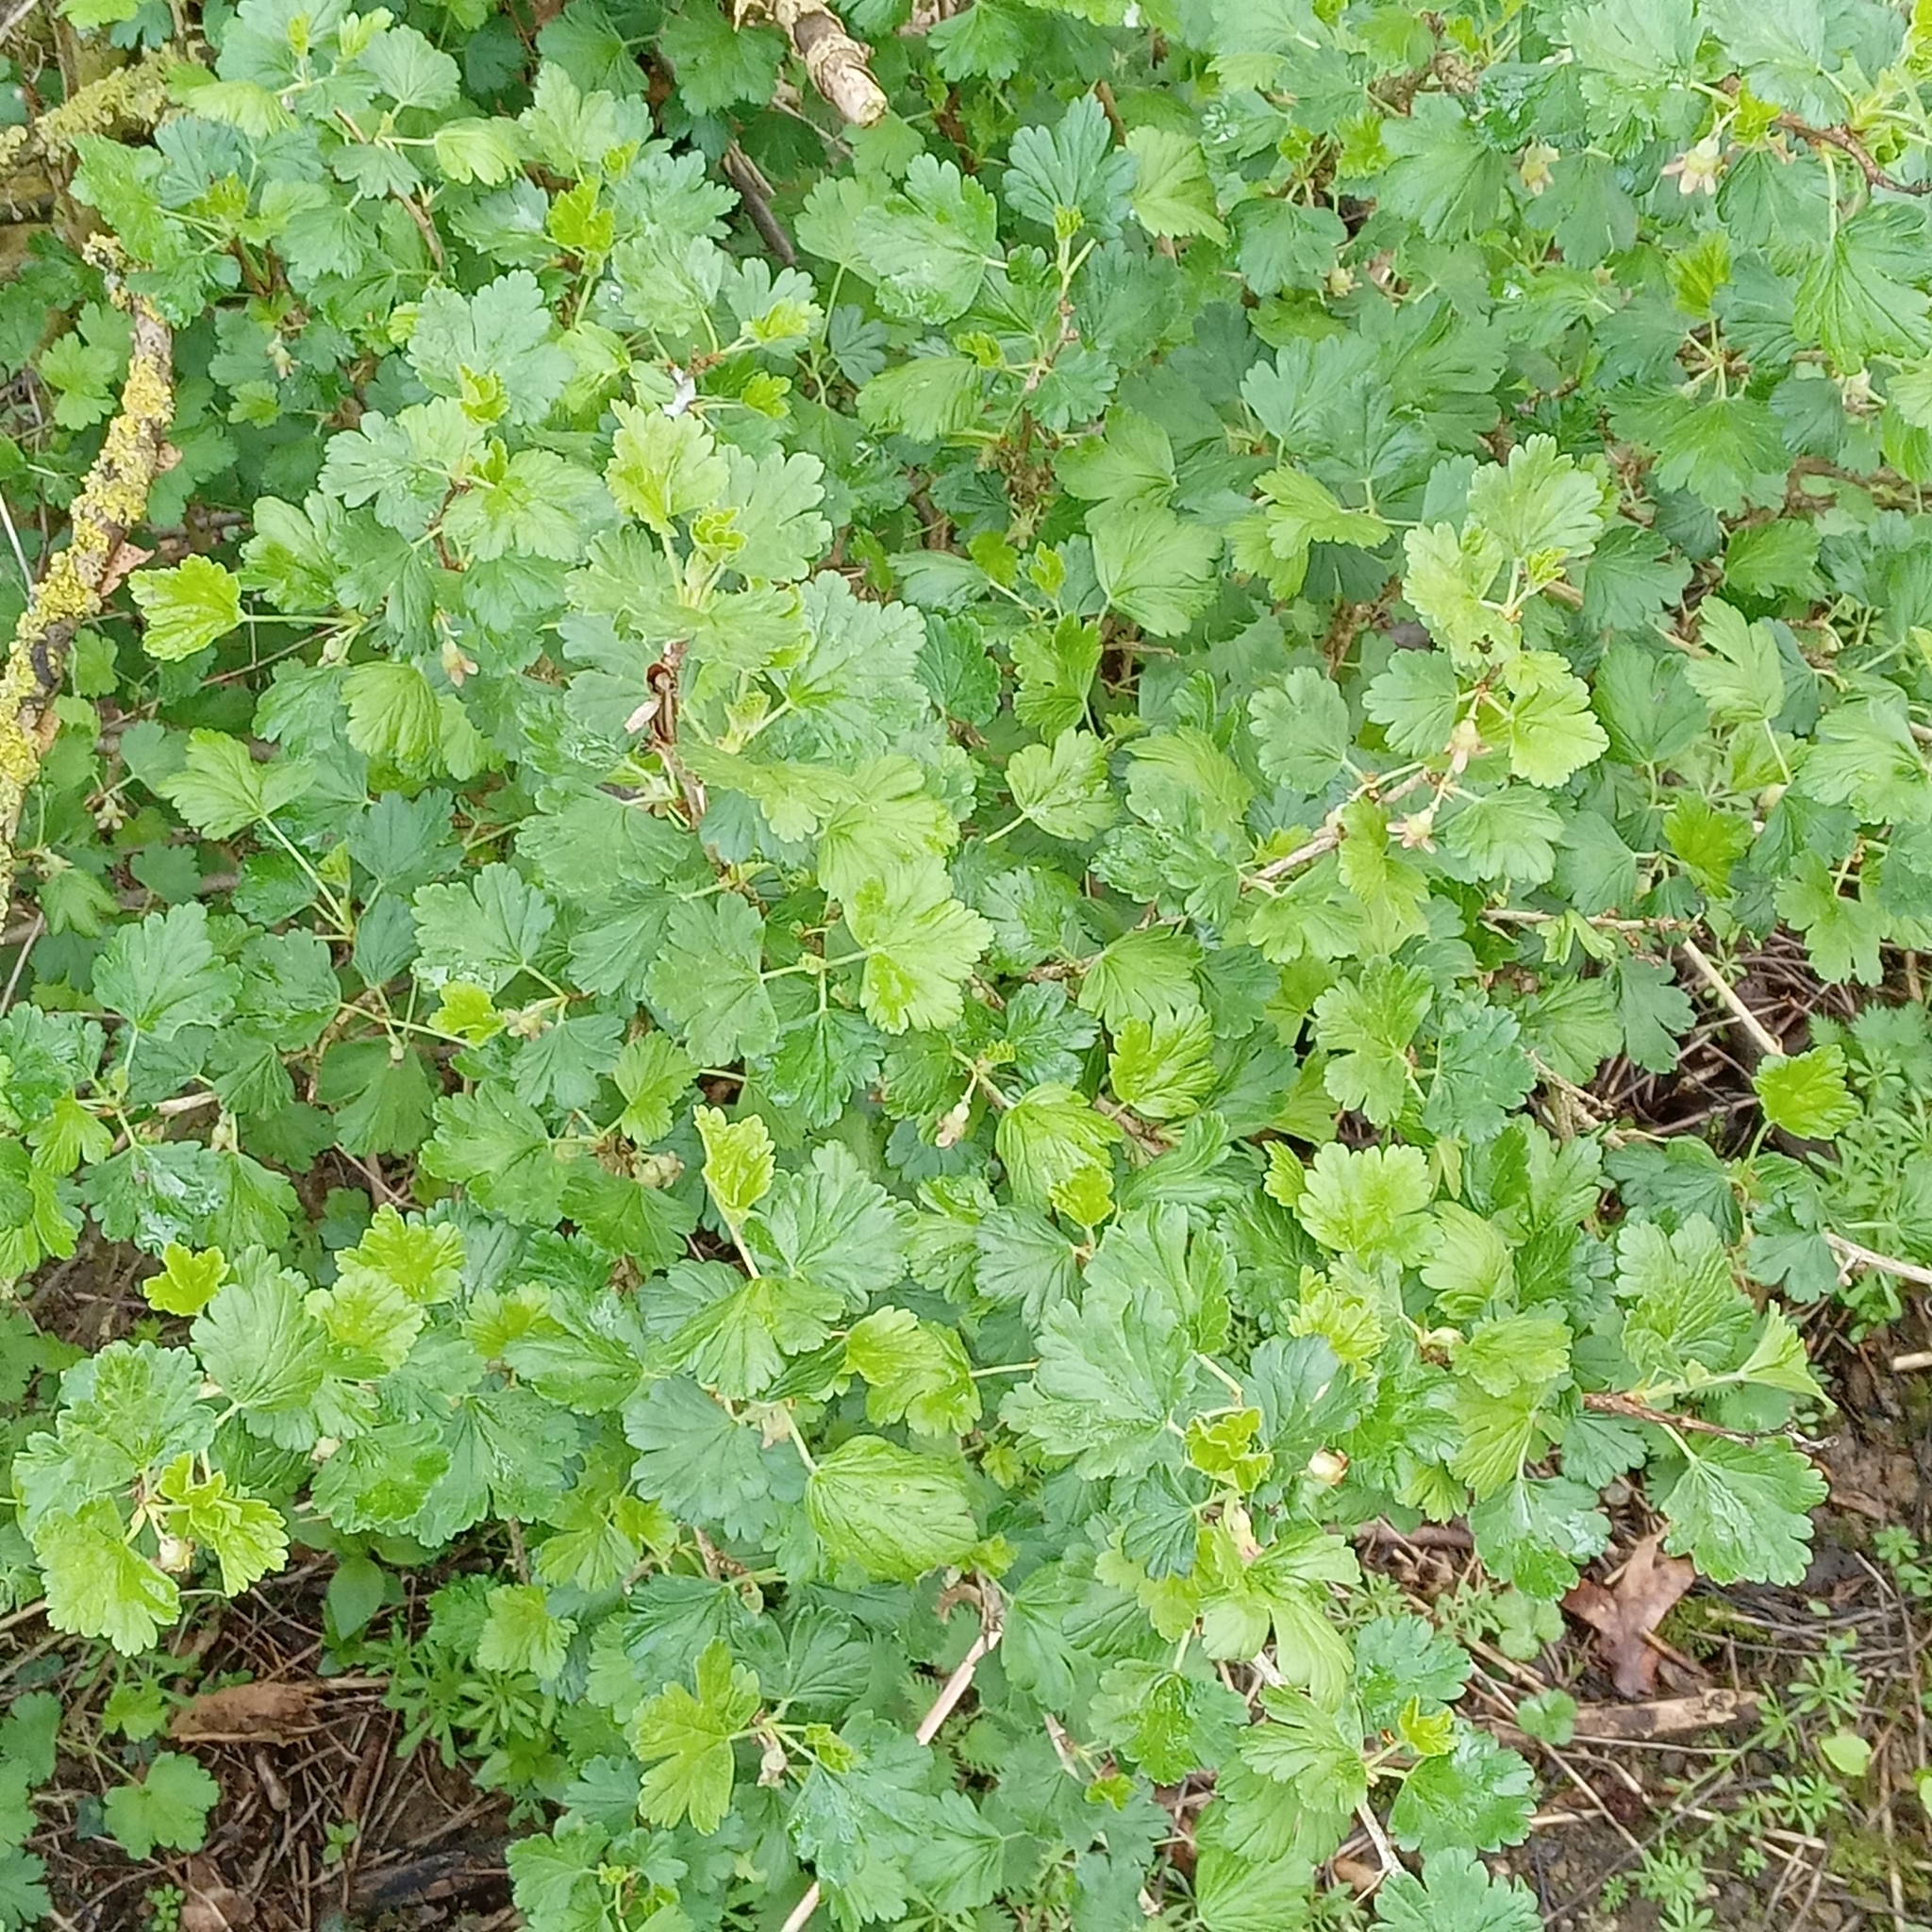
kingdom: Plantae
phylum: Tracheophyta
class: Magnoliopsida
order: Saxifragales
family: Grossulariaceae
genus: Ribes
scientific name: Ribes uva-crispa
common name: Gooseberry
